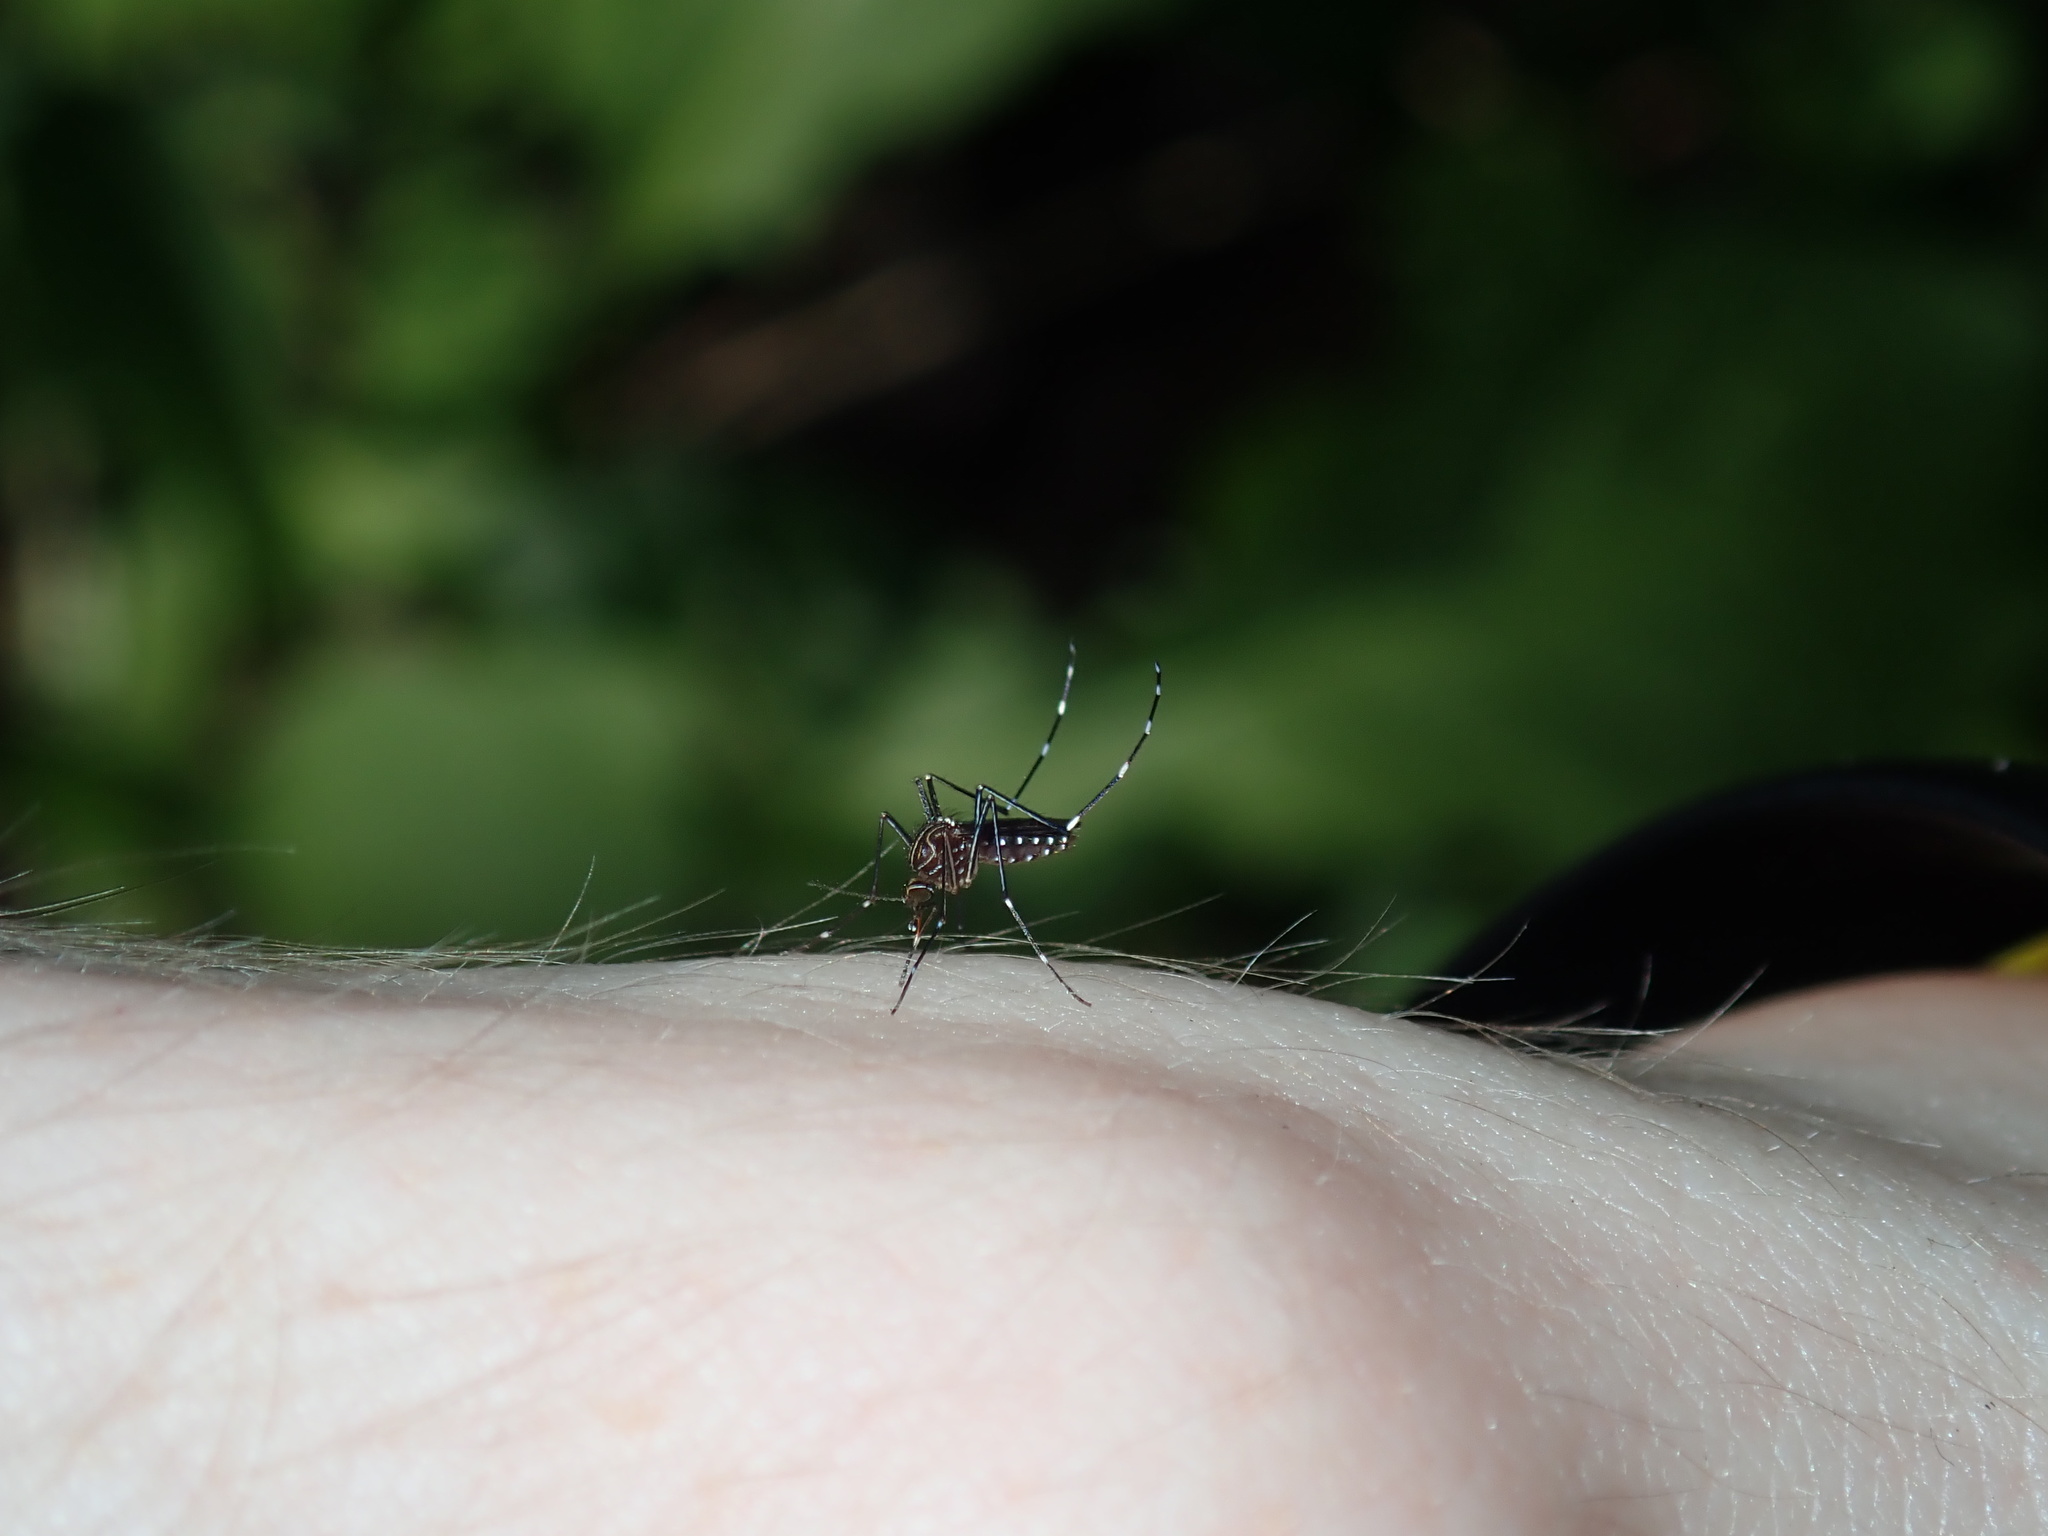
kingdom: Animalia
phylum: Arthropoda
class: Insecta
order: Diptera
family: Culicidae
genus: Aedes
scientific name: Aedes notoscriptus
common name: Australian backyard mosquito
